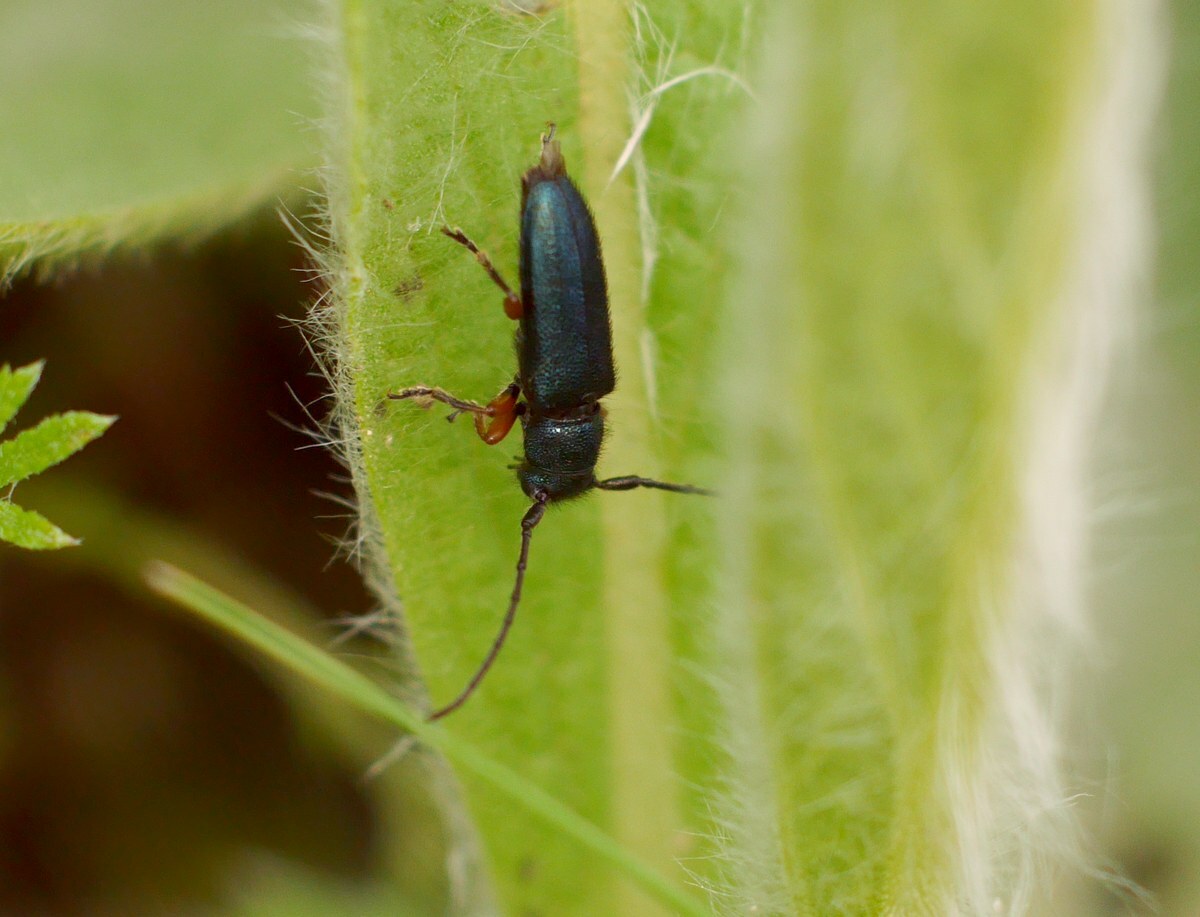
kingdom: Animalia
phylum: Arthropoda
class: Insecta
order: Coleoptera
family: Cerambycidae
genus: Phytoecia
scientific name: Phytoecia millefolii
